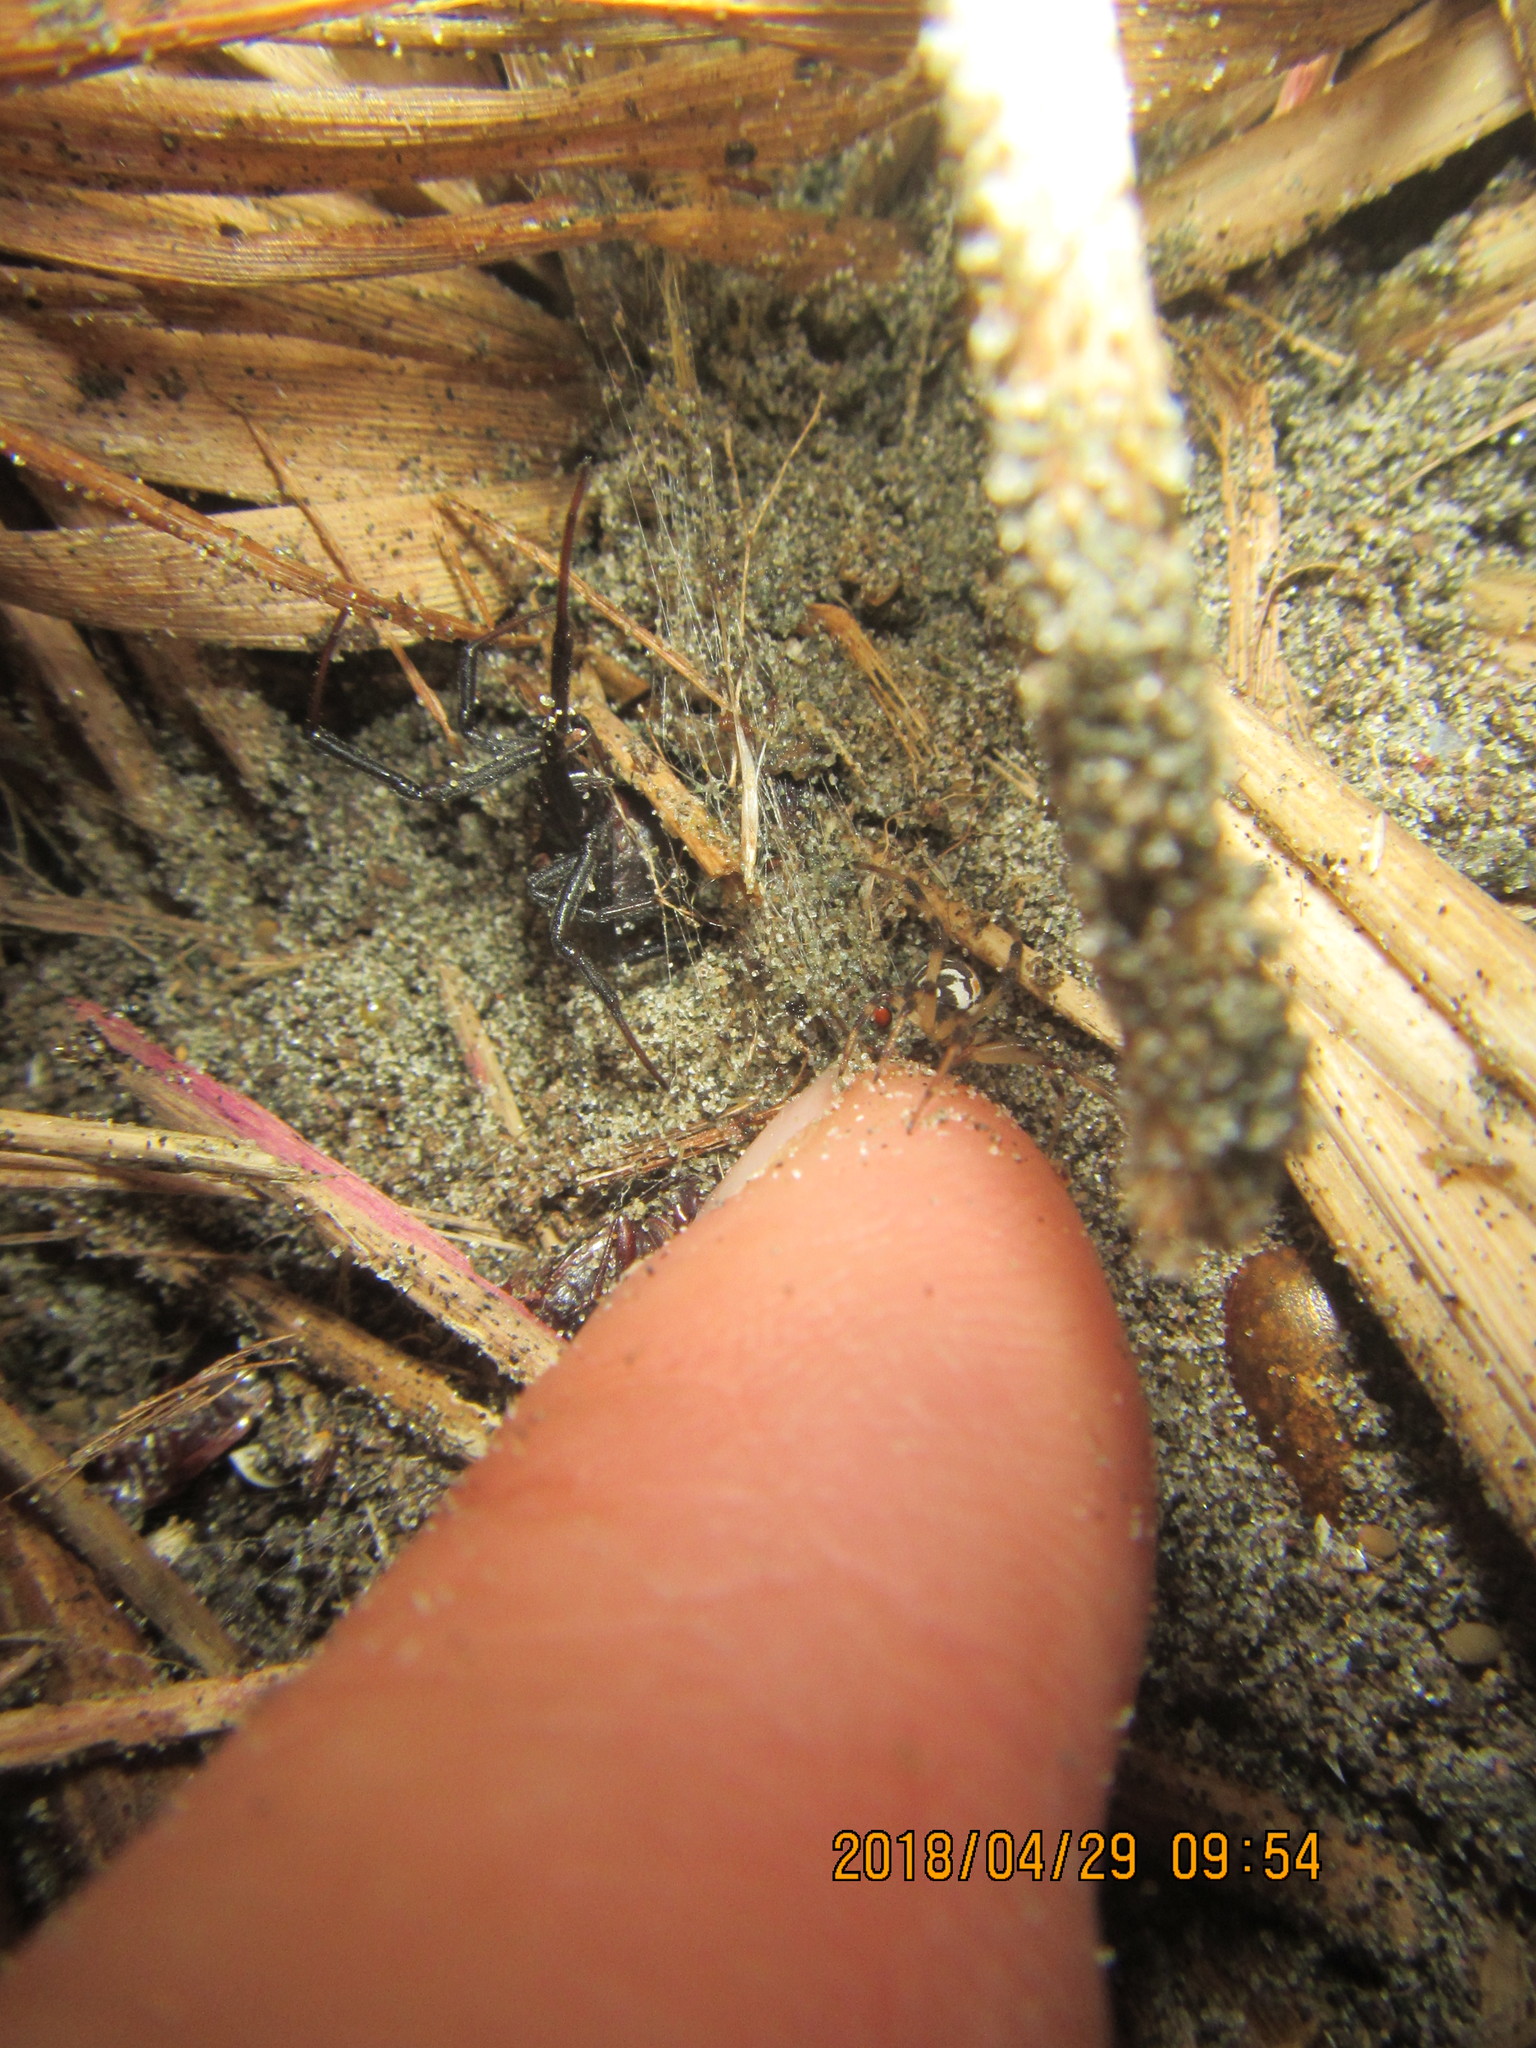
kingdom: Animalia
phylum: Arthropoda
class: Arachnida
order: Araneae
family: Theridiidae
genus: Latrodectus
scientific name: Latrodectus katipo
